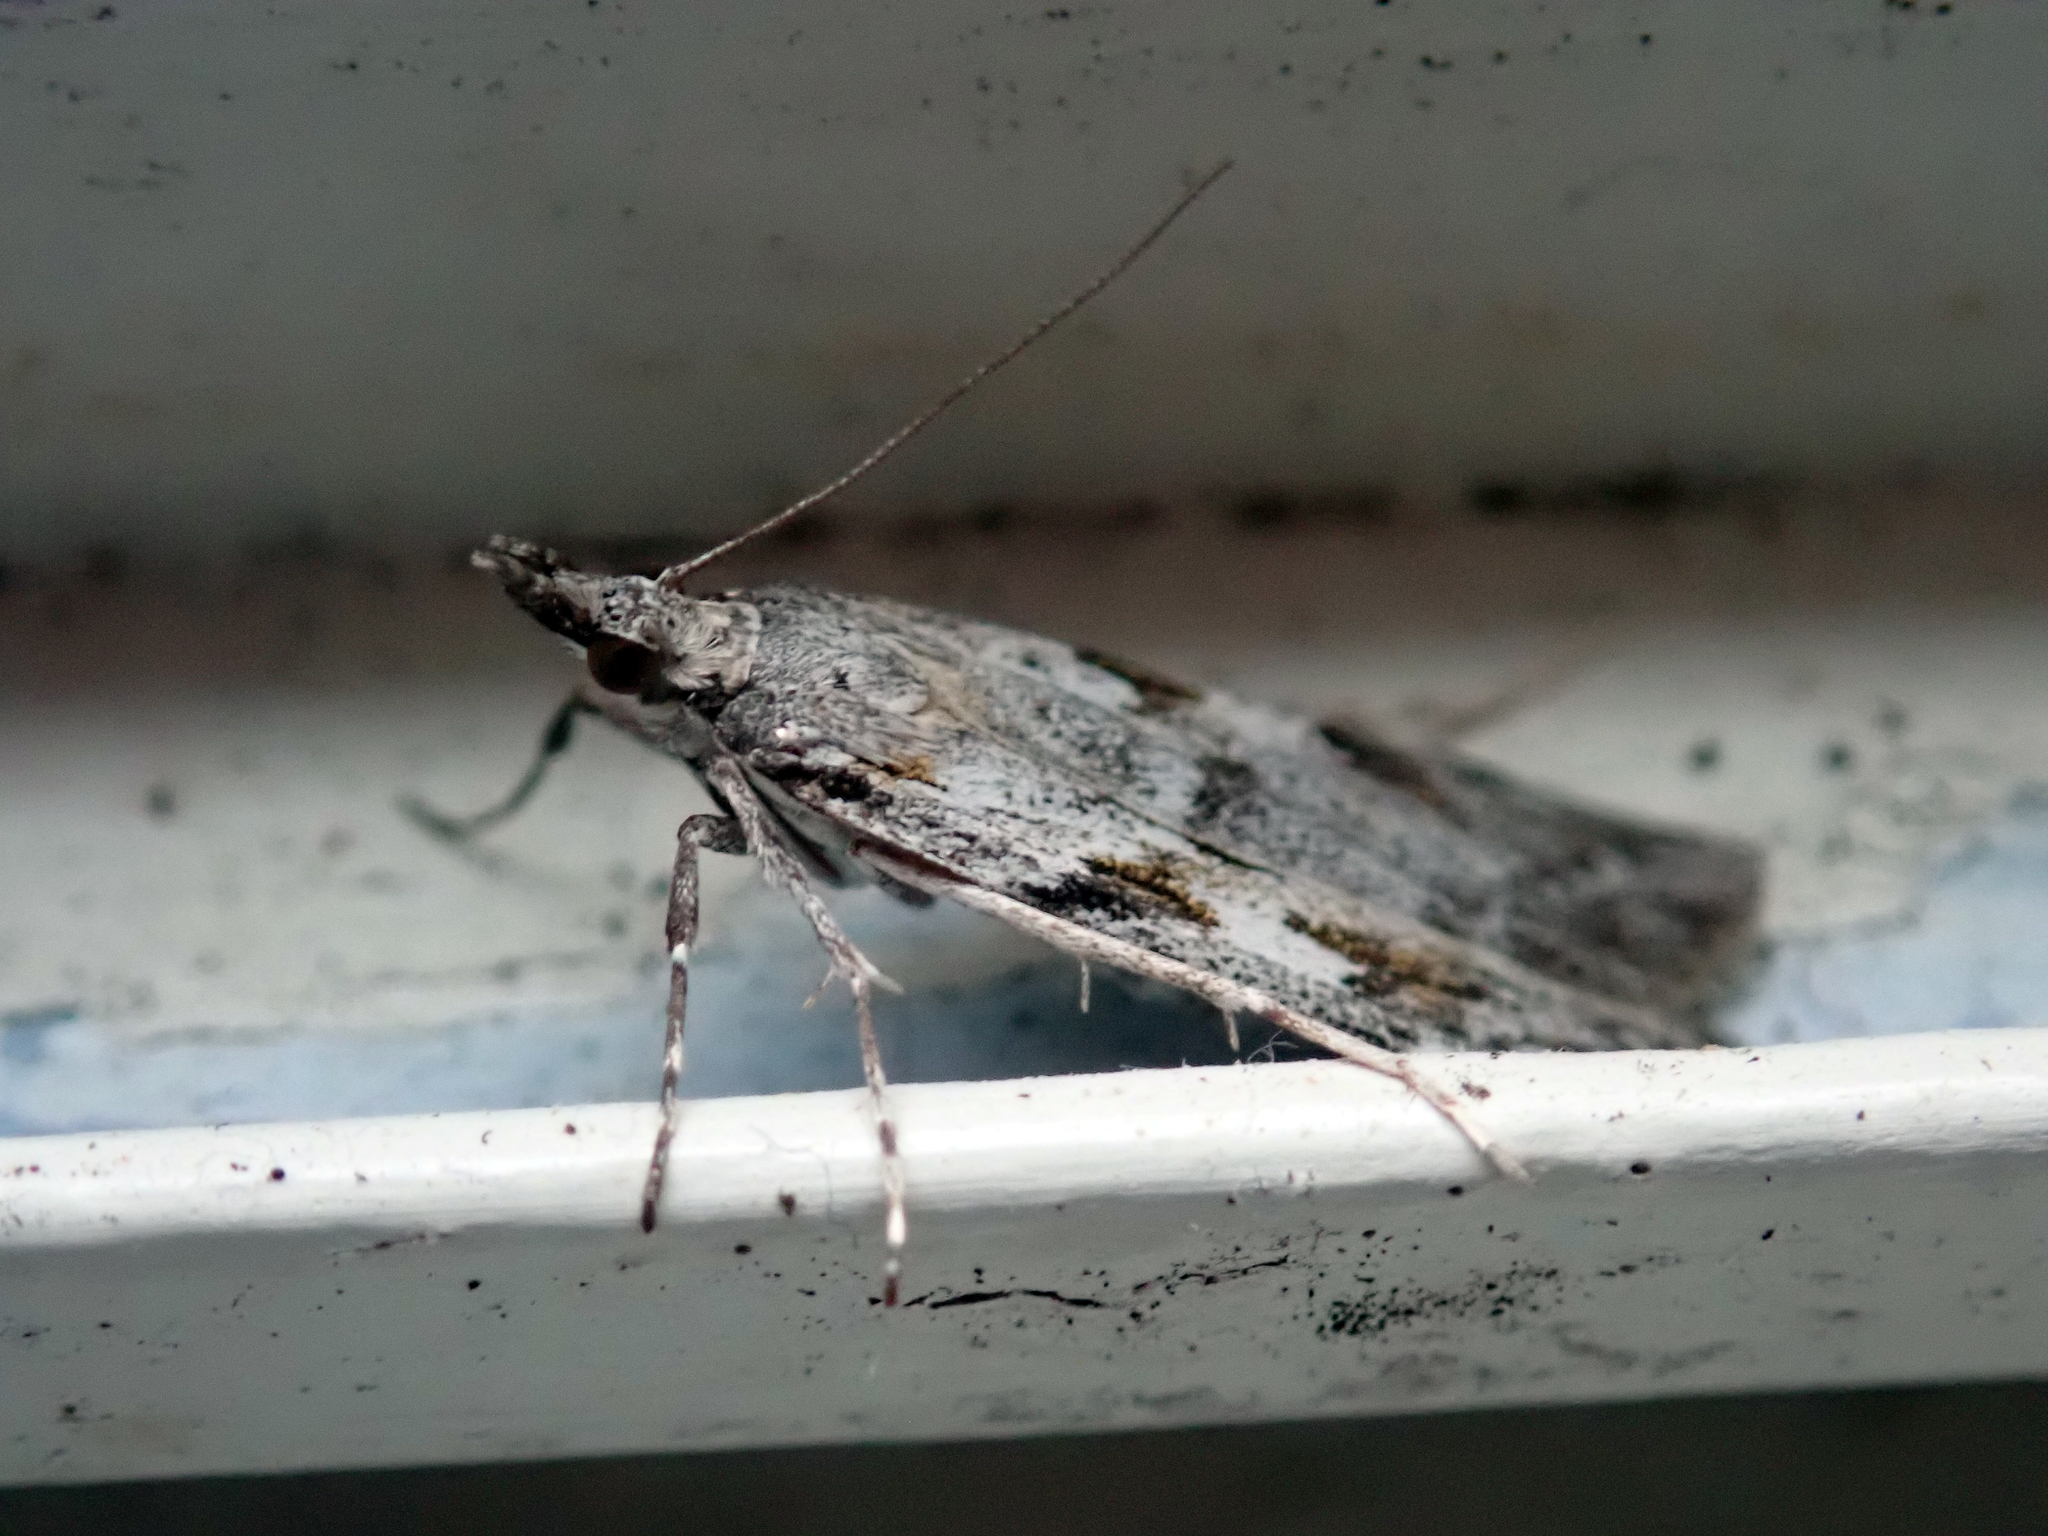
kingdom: Animalia
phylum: Arthropoda
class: Insecta
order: Lepidoptera
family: Crambidae
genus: Scoparia
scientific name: Scoparia halopis
